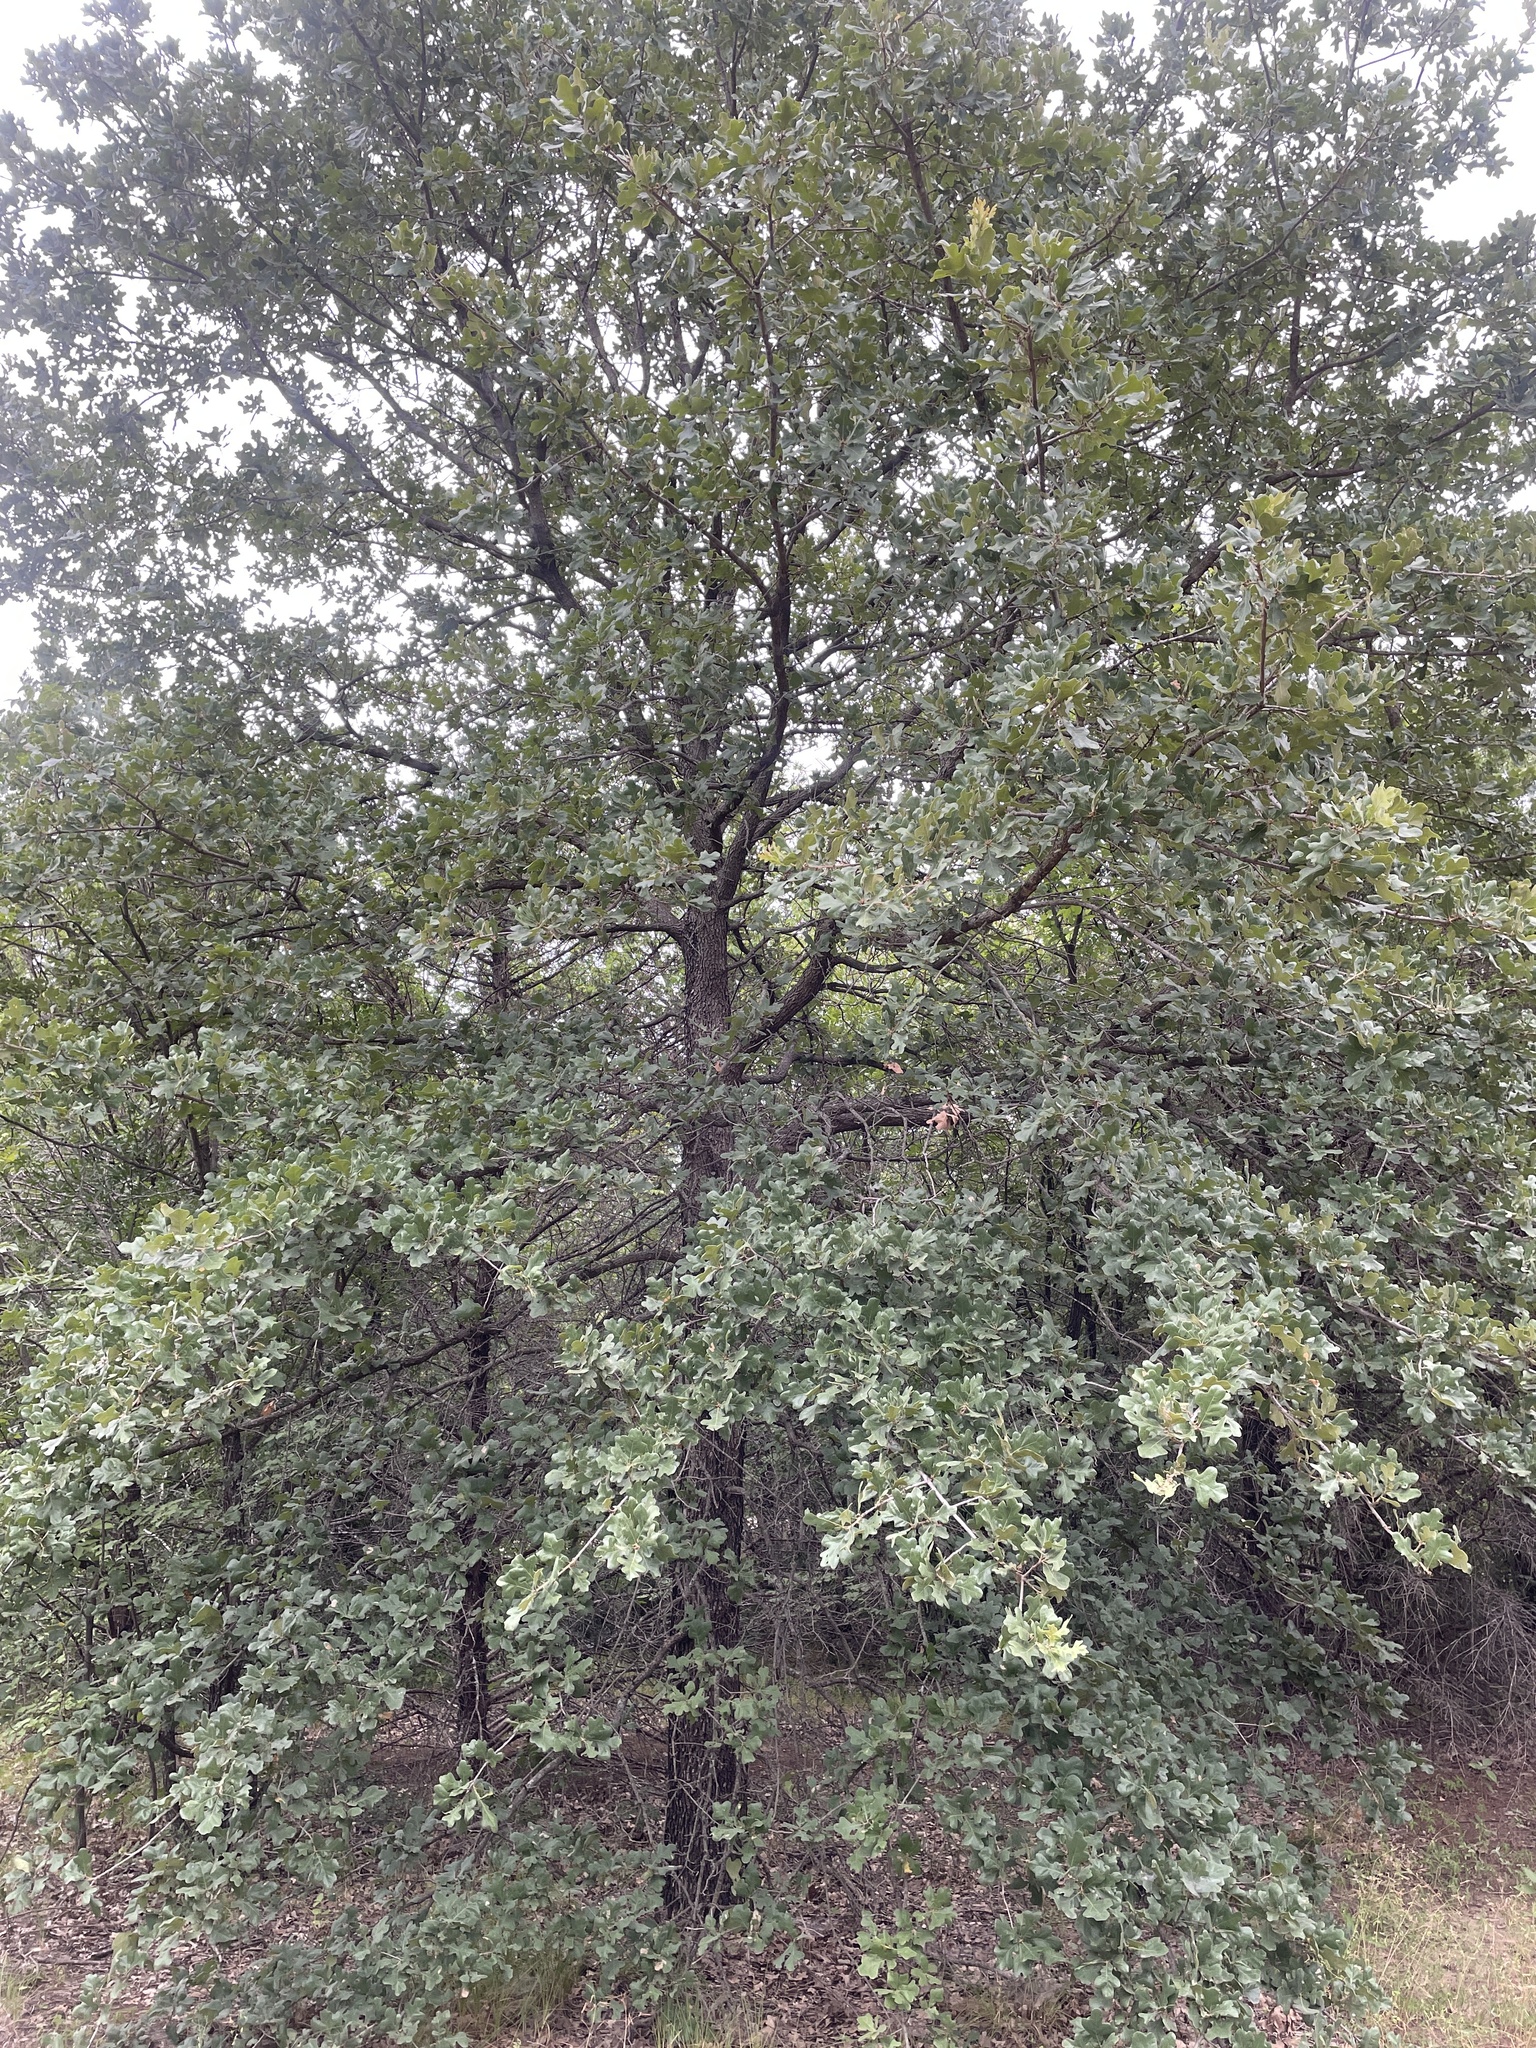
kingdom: Plantae
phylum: Tracheophyta
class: Magnoliopsida
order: Fagales
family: Fagaceae
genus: Quercus
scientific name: Quercus stellata
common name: Post oak
